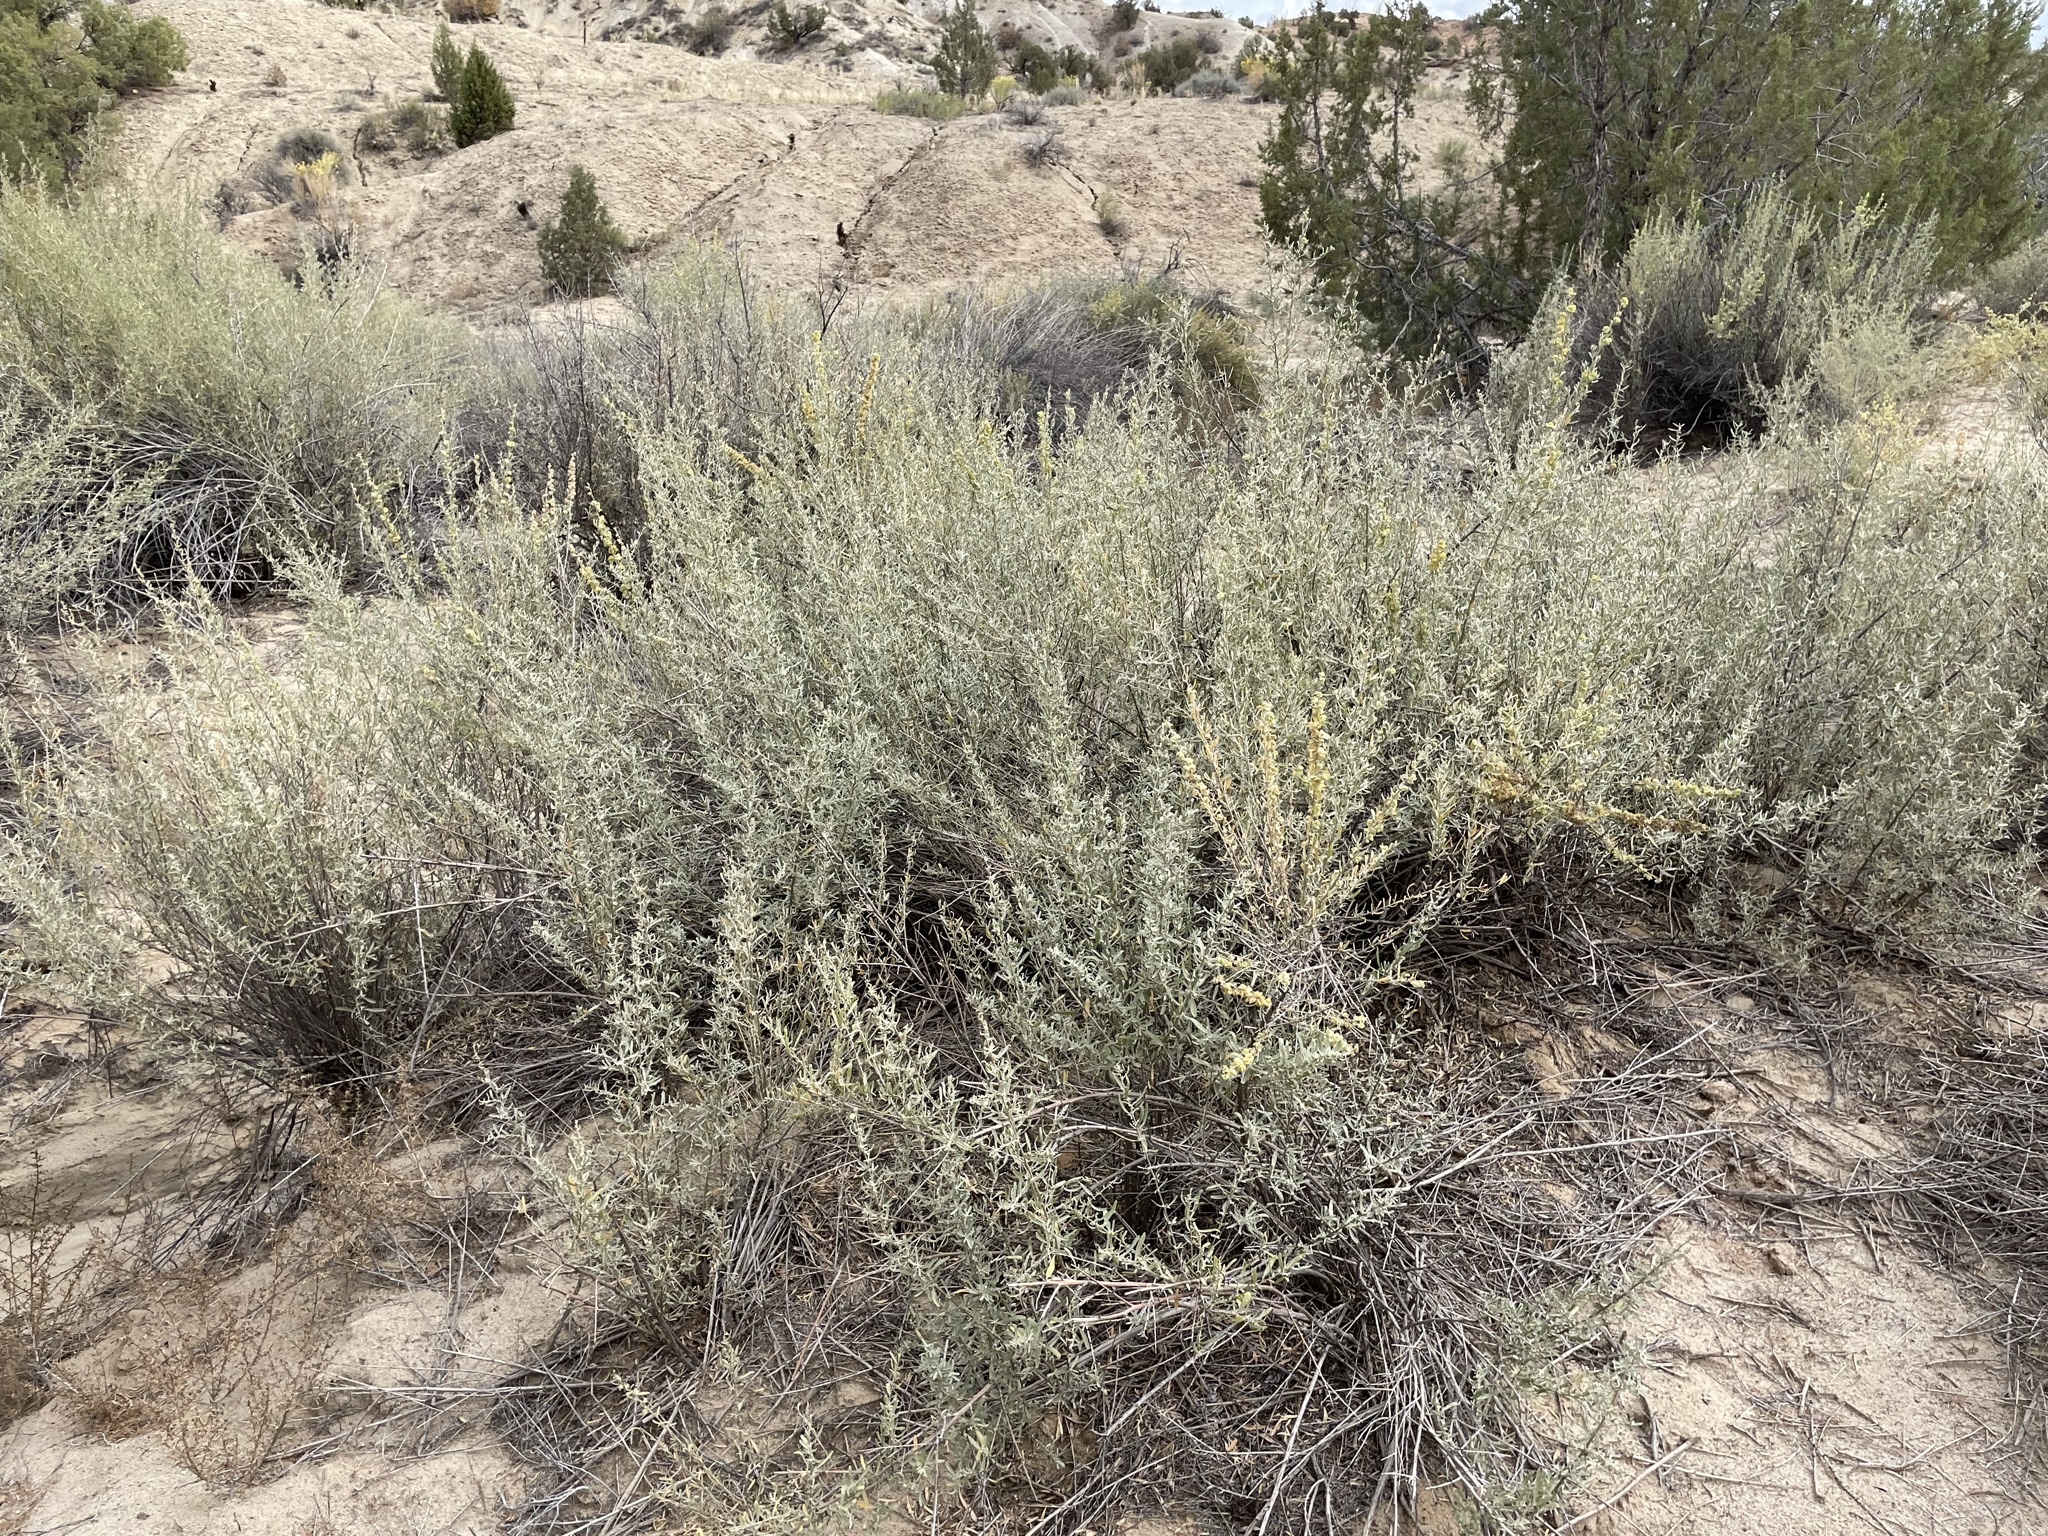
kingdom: Plantae
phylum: Tracheophyta
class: Magnoliopsida
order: Caryophyllales
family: Amaranthaceae
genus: Atriplex
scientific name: Atriplex canescens
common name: Four-wing saltbush
